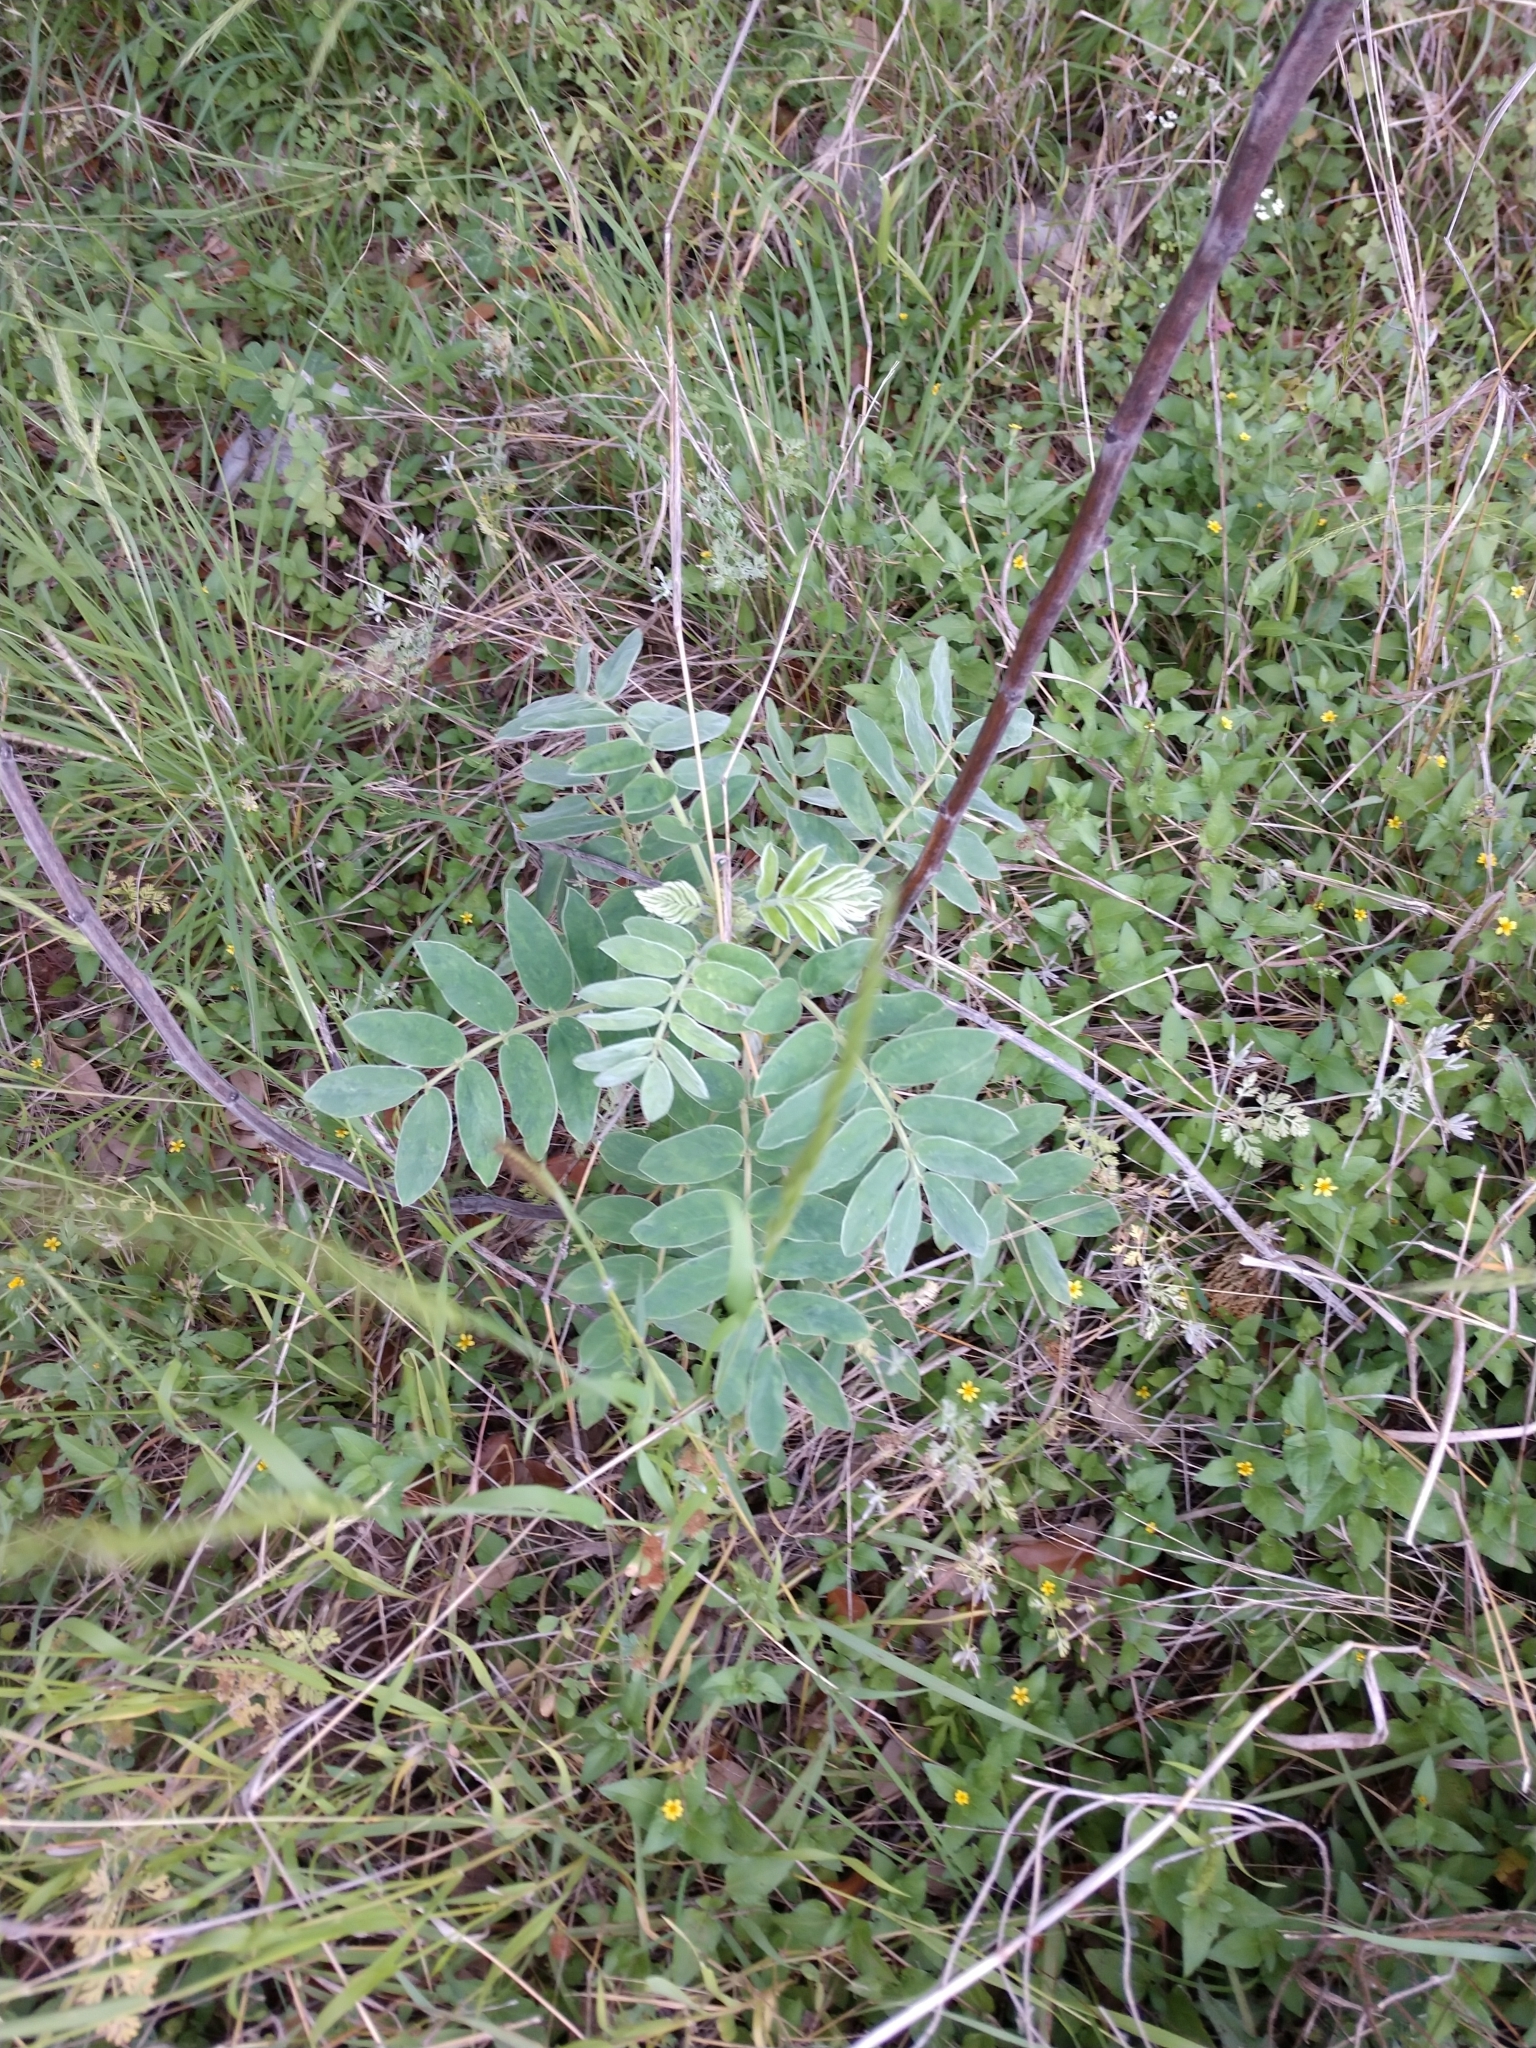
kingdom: Plantae
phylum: Tracheophyta
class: Magnoliopsida
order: Fabales
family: Fabaceae
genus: Senna
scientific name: Senna lindheimeriana
